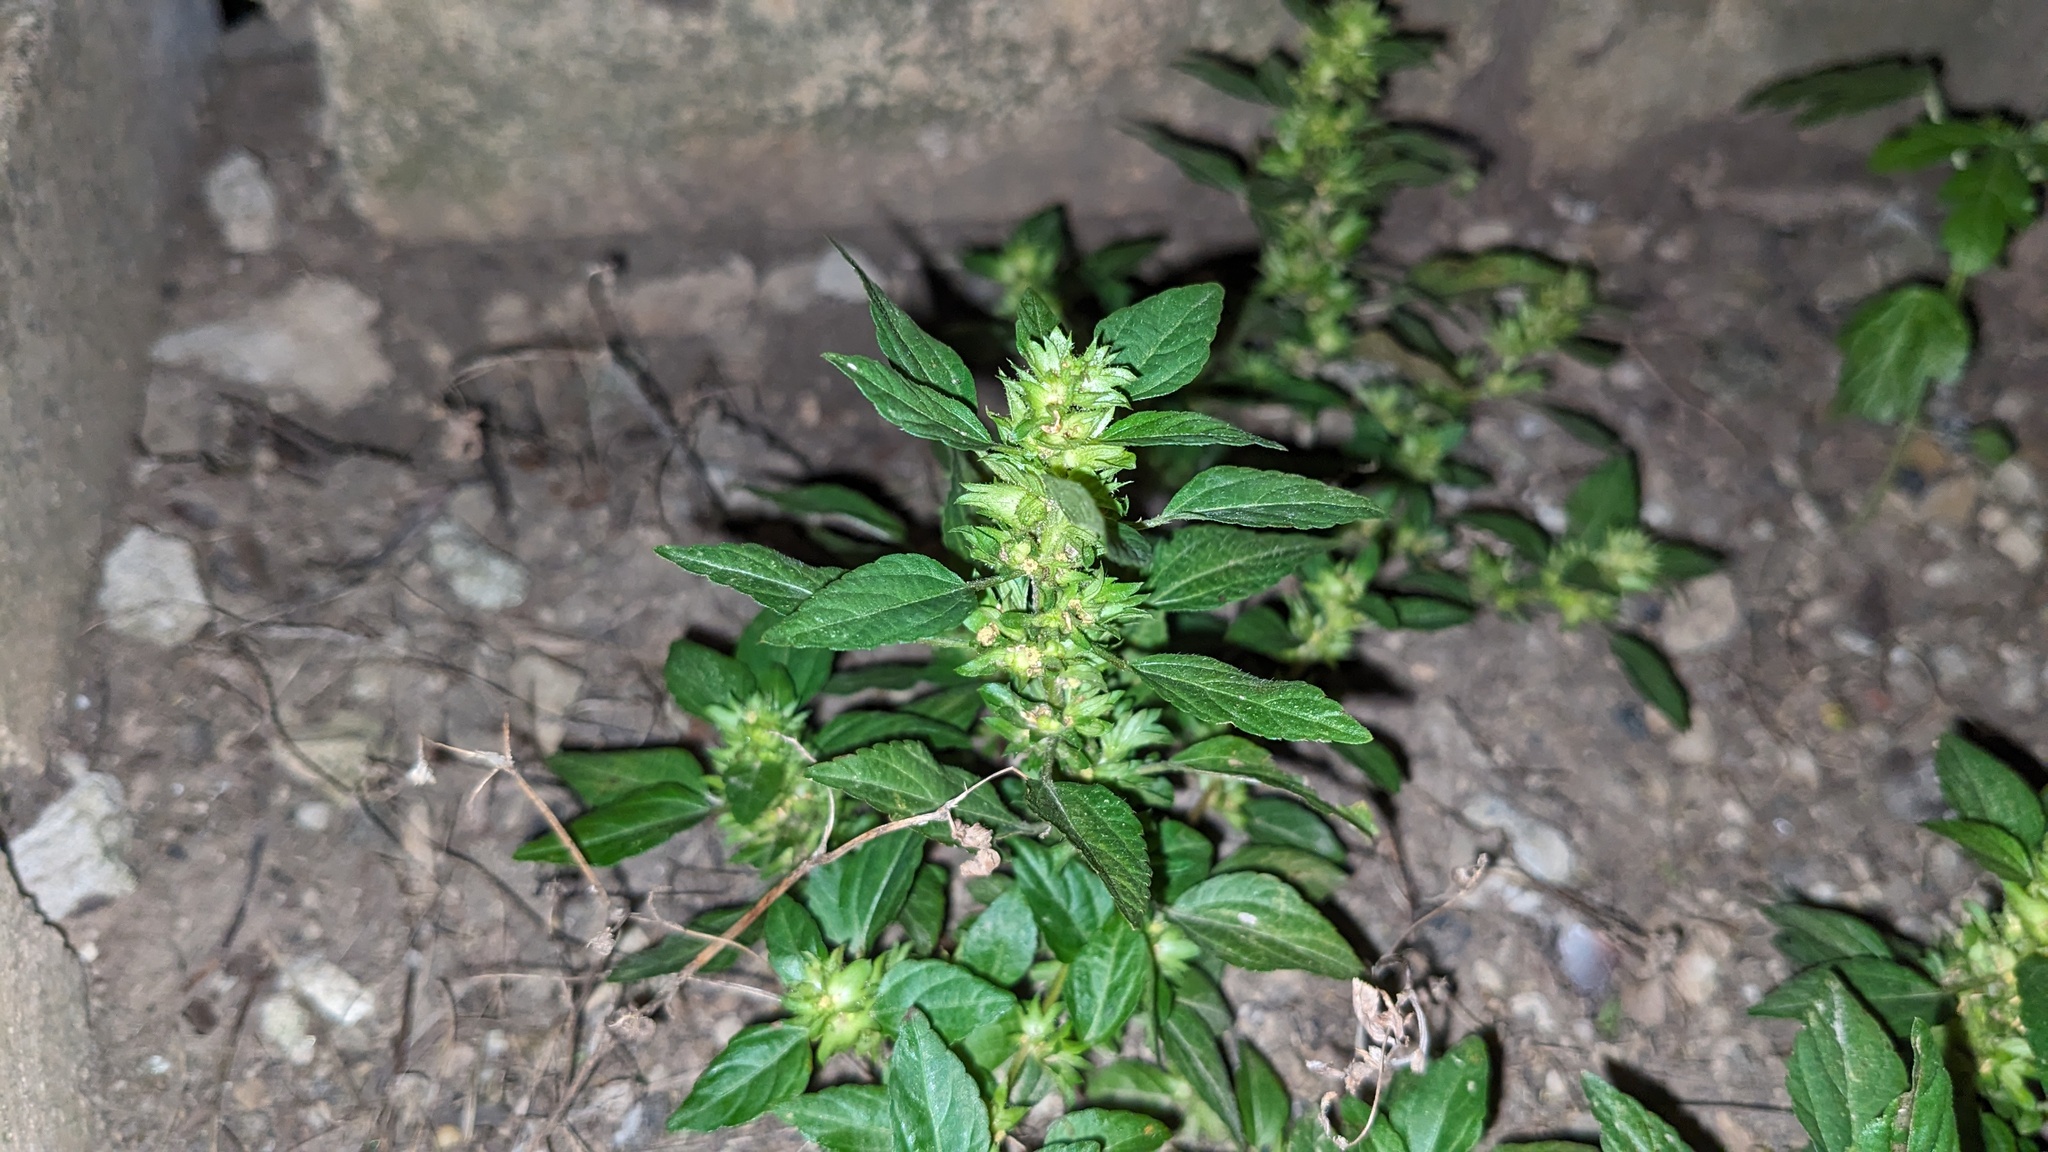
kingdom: Plantae
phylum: Tracheophyta
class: Magnoliopsida
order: Malpighiales
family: Euphorbiaceae
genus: Acalypha
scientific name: Acalypha rhomboidea
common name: Rhombic copperleaf
